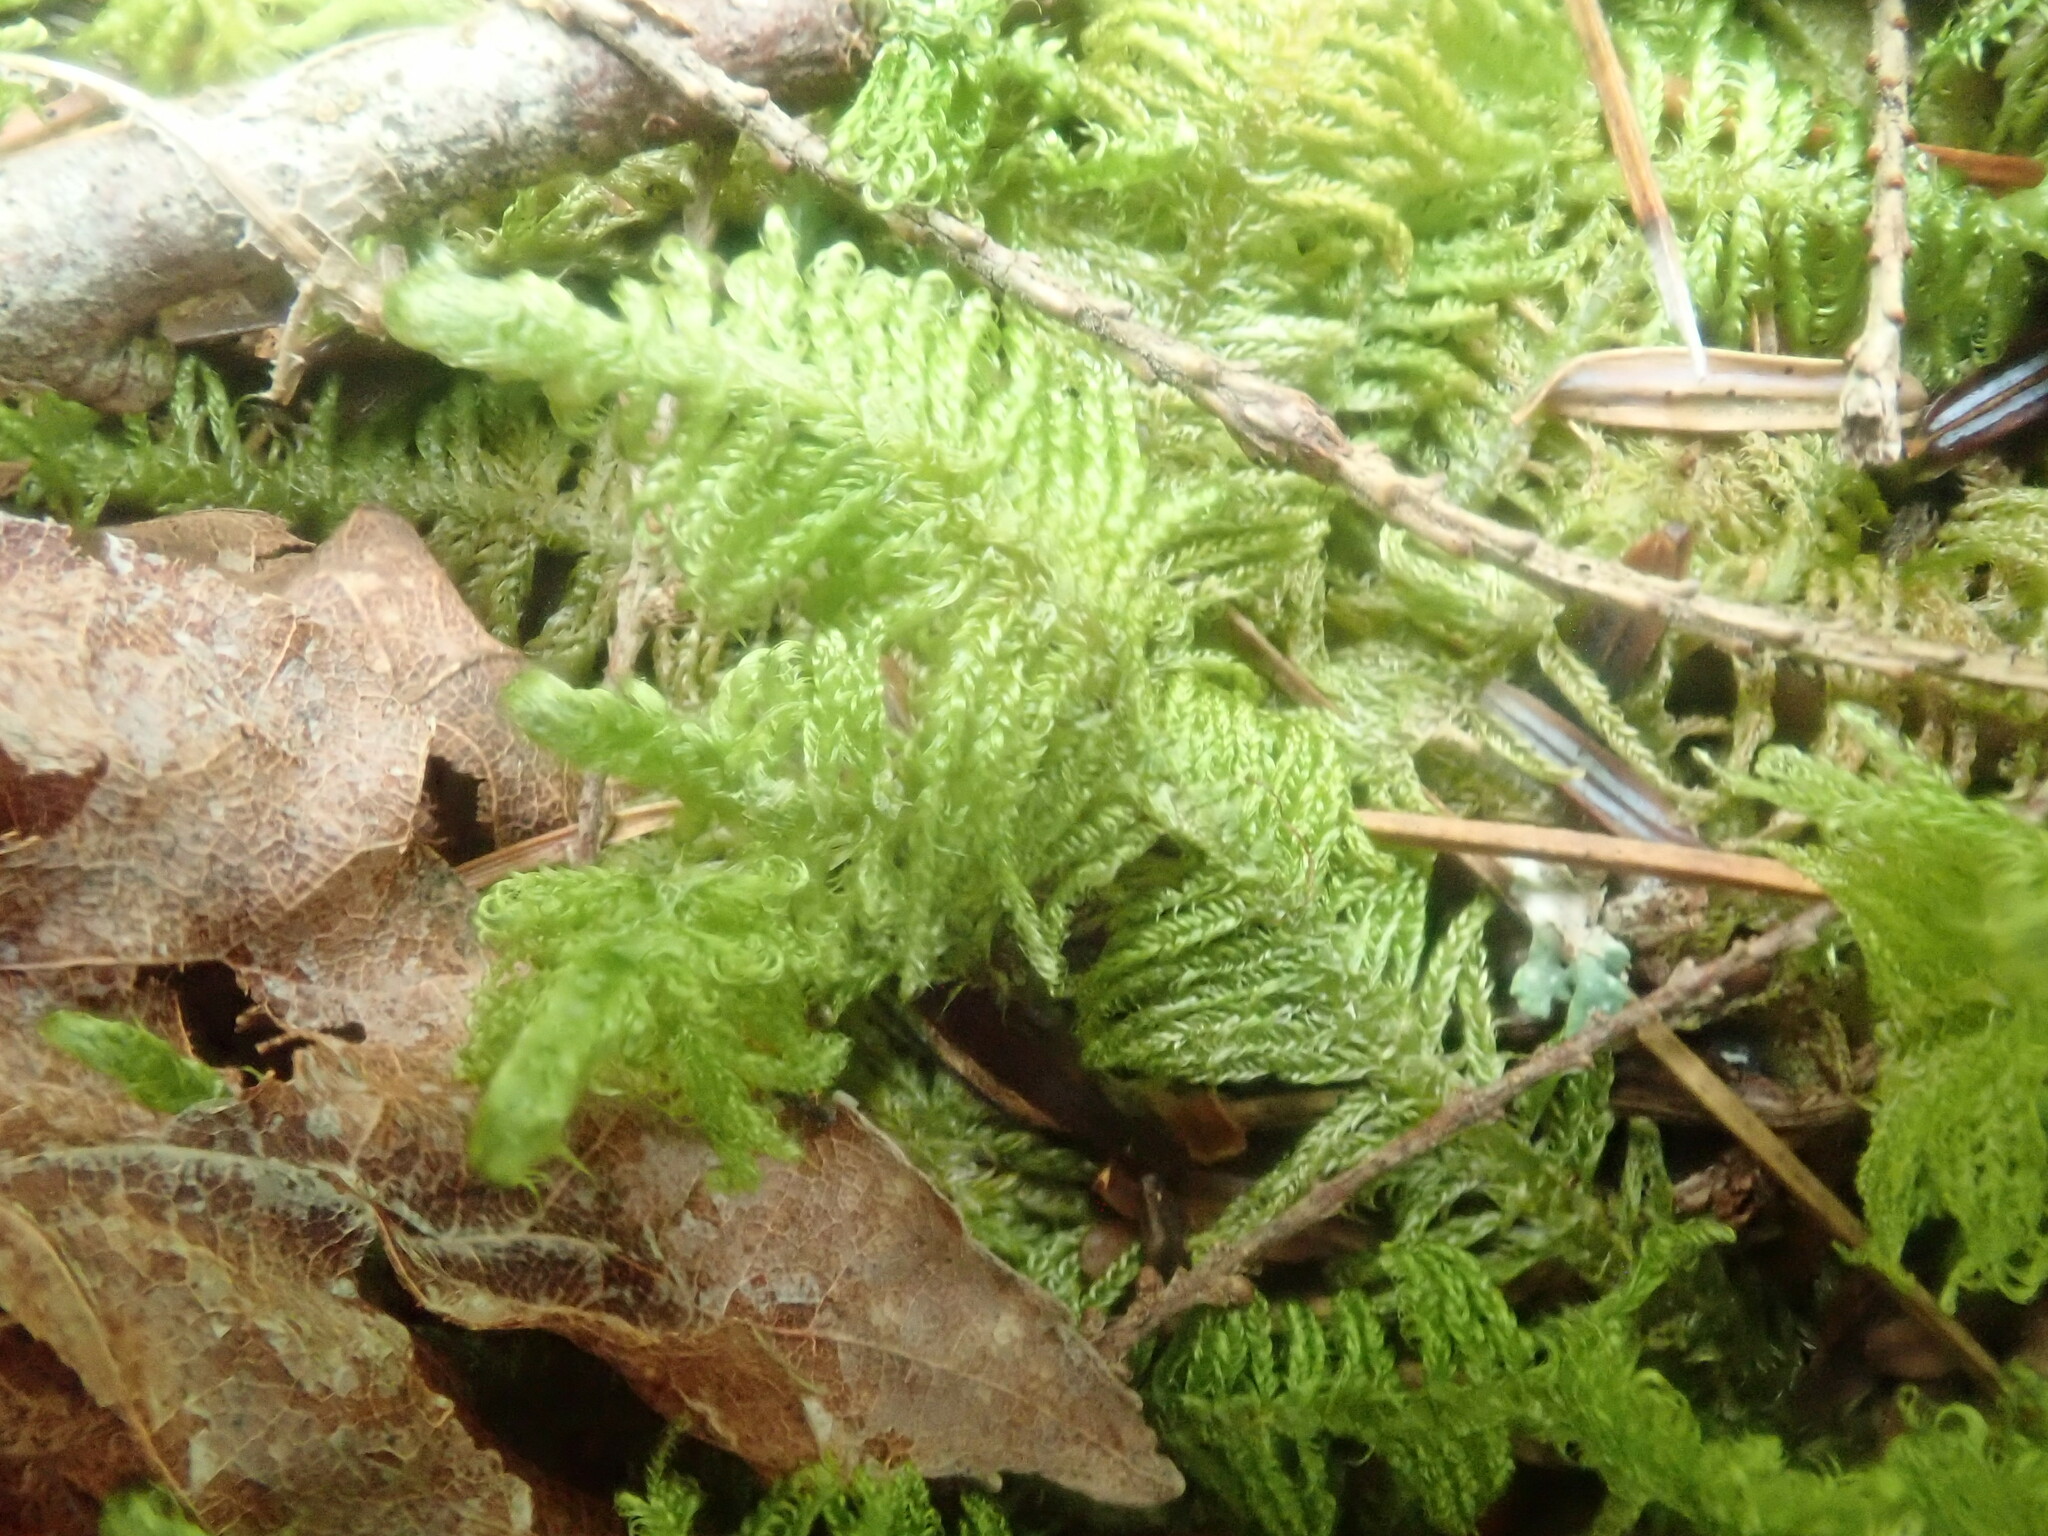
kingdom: Plantae
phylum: Bryophyta
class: Bryopsida
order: Hypnales
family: Callicladiaceae
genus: Callicladium
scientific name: Callicladium imponens
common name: Brocade moss
